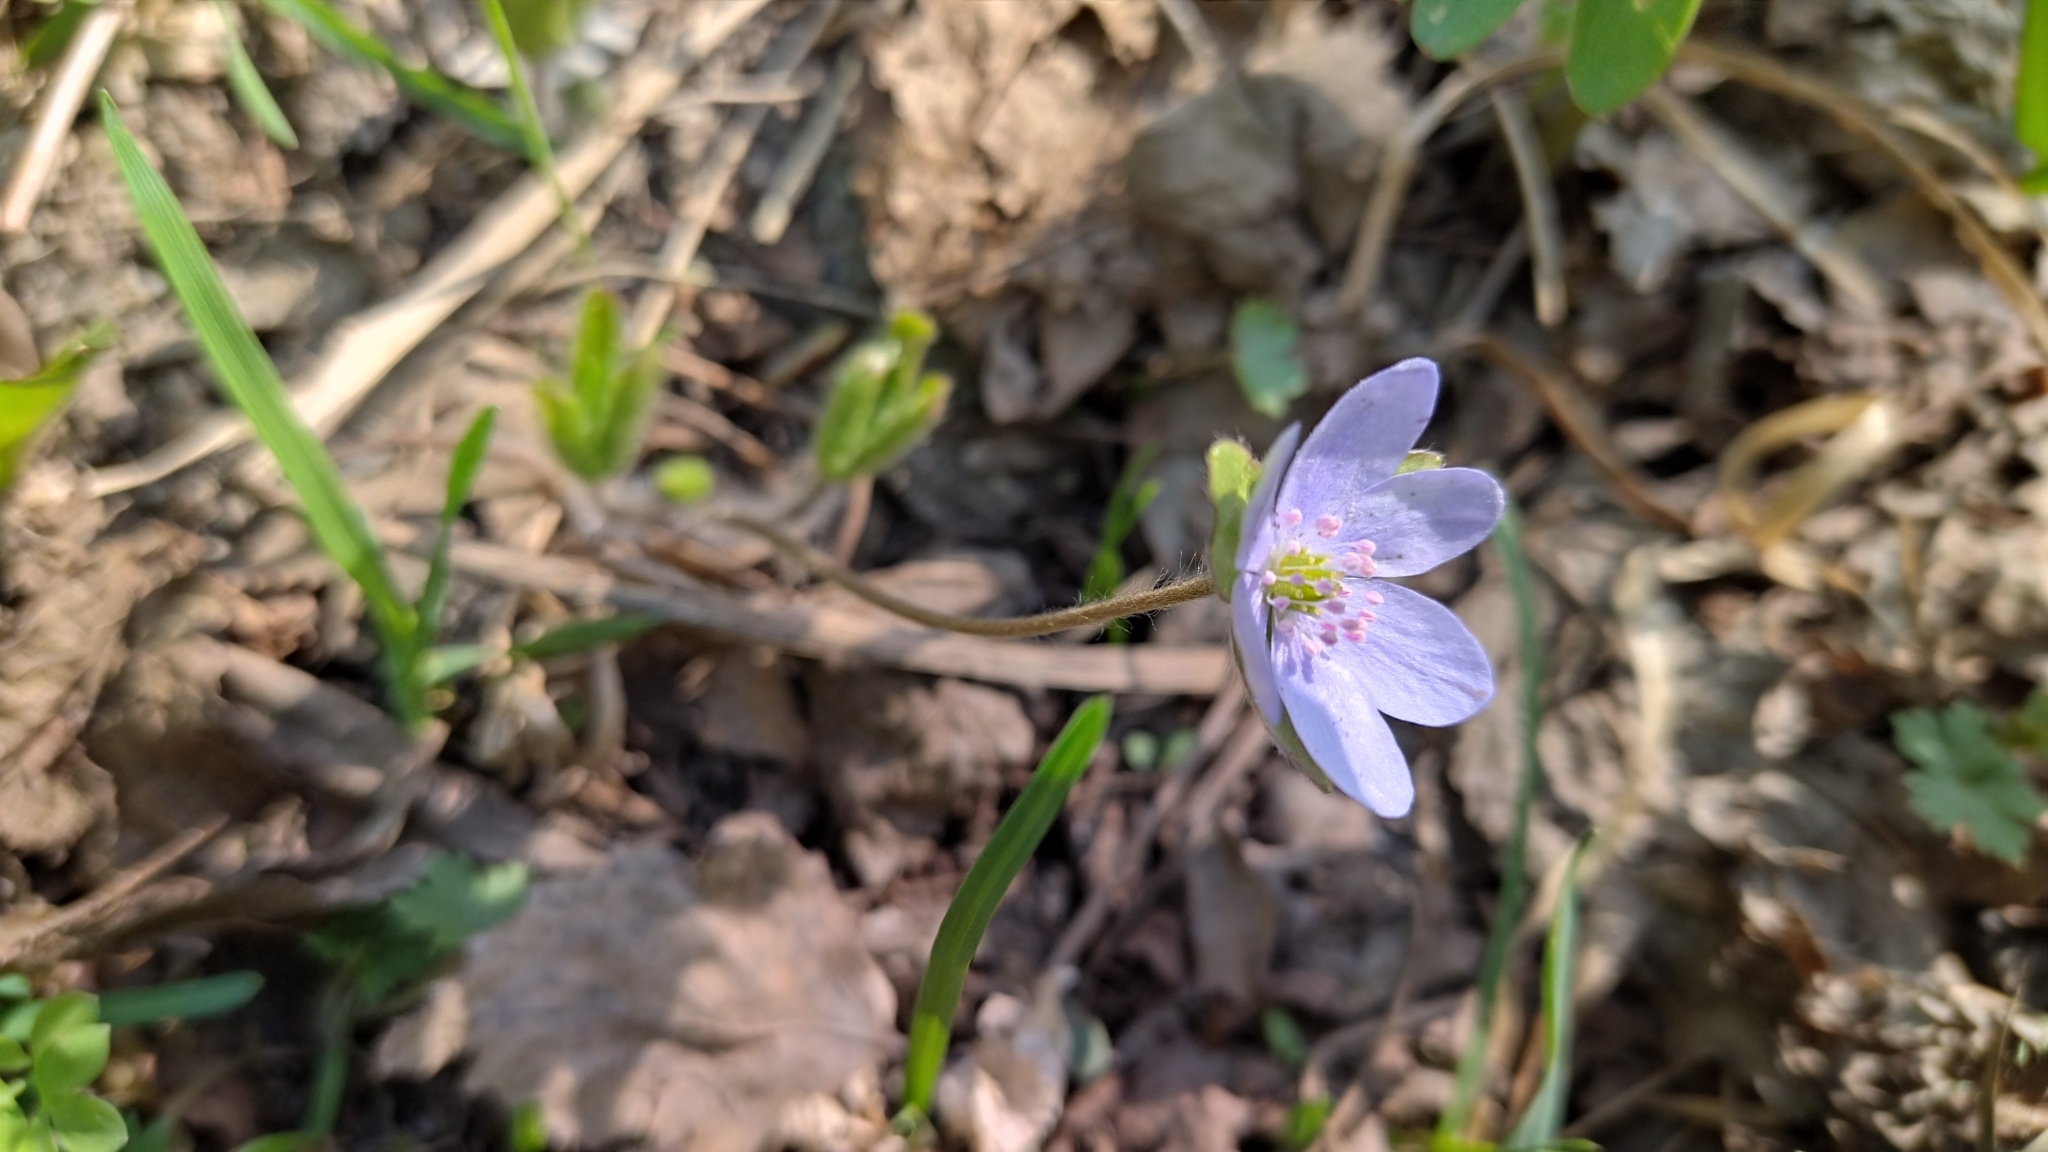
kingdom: Plantae
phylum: Tracheophyta
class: Magnoliopsida
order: Ranunculales
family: Ranunculaceae
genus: Hepatica
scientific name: Hepatica nobilis
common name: Liverleaf
